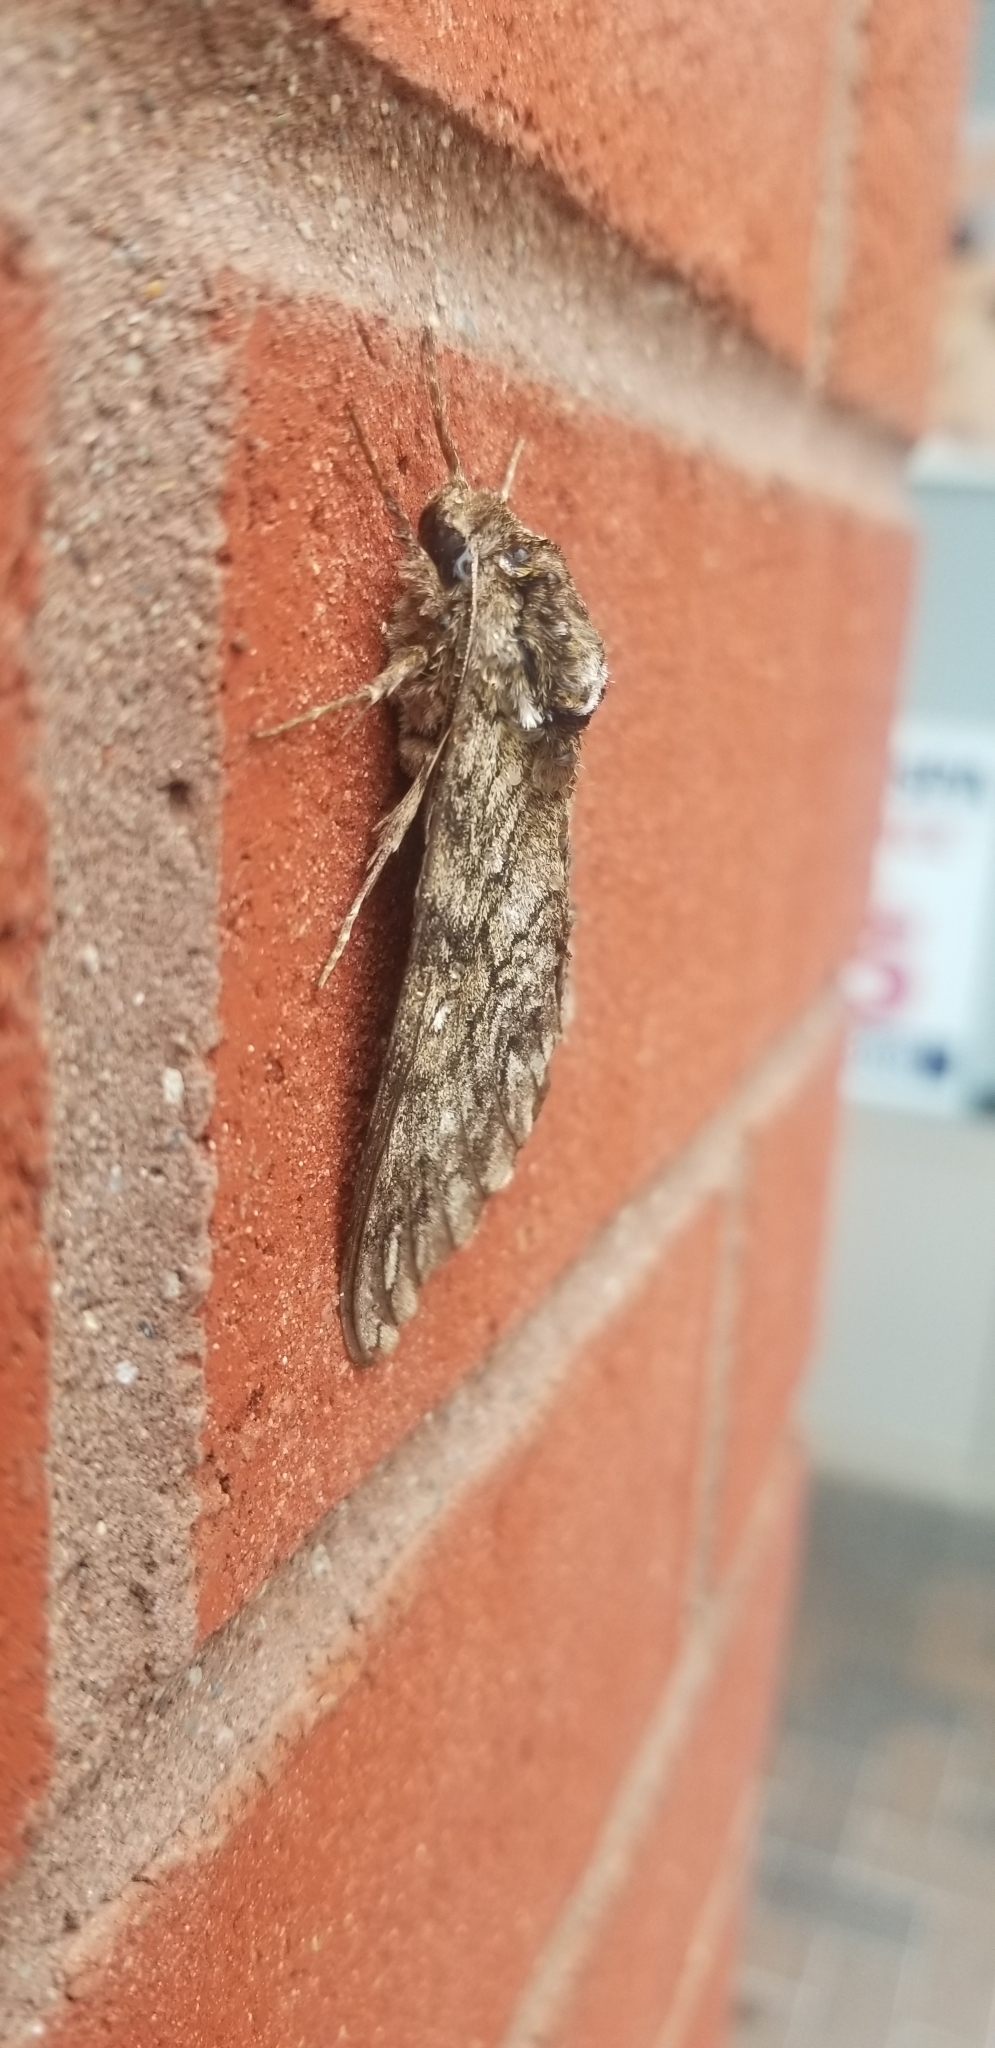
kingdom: Animalia
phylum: Arthropoda
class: Insecta
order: Lepidoptera
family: Sphingidae
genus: Ceratomia
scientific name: Ceratomia undulosa
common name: Waved sphinx
